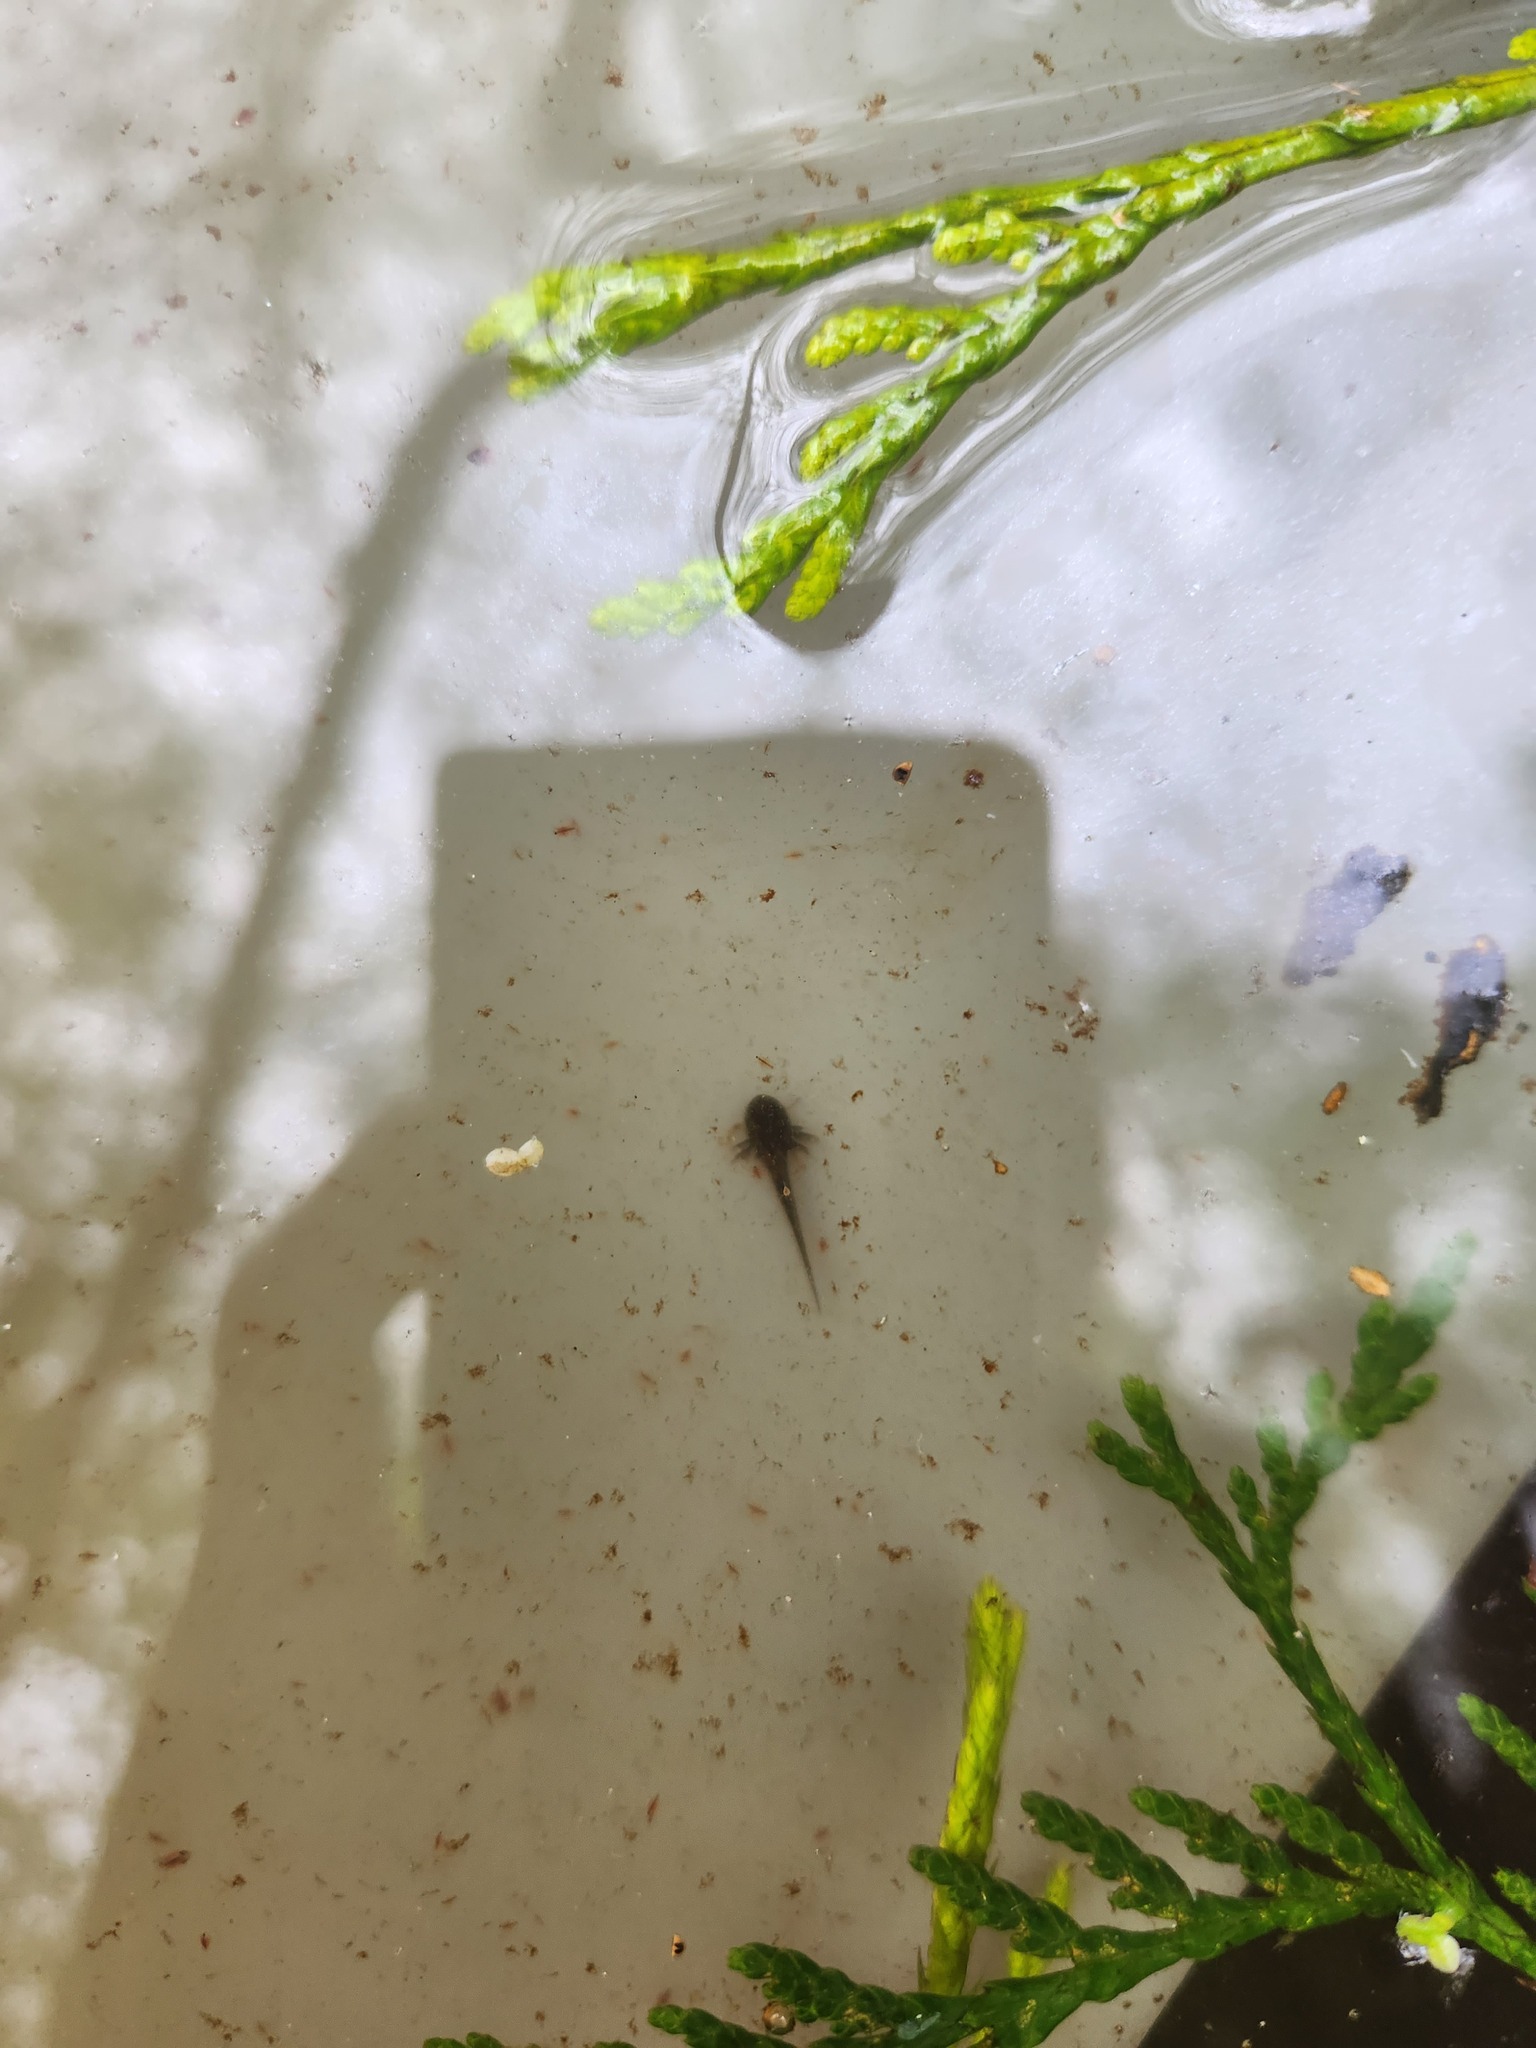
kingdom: Animalia
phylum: Chordata
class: Amphibia
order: Caudata
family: Ambystomatidae
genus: Ambystoma
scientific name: Ambystoma macrodactylum
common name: Long-toed salamander
